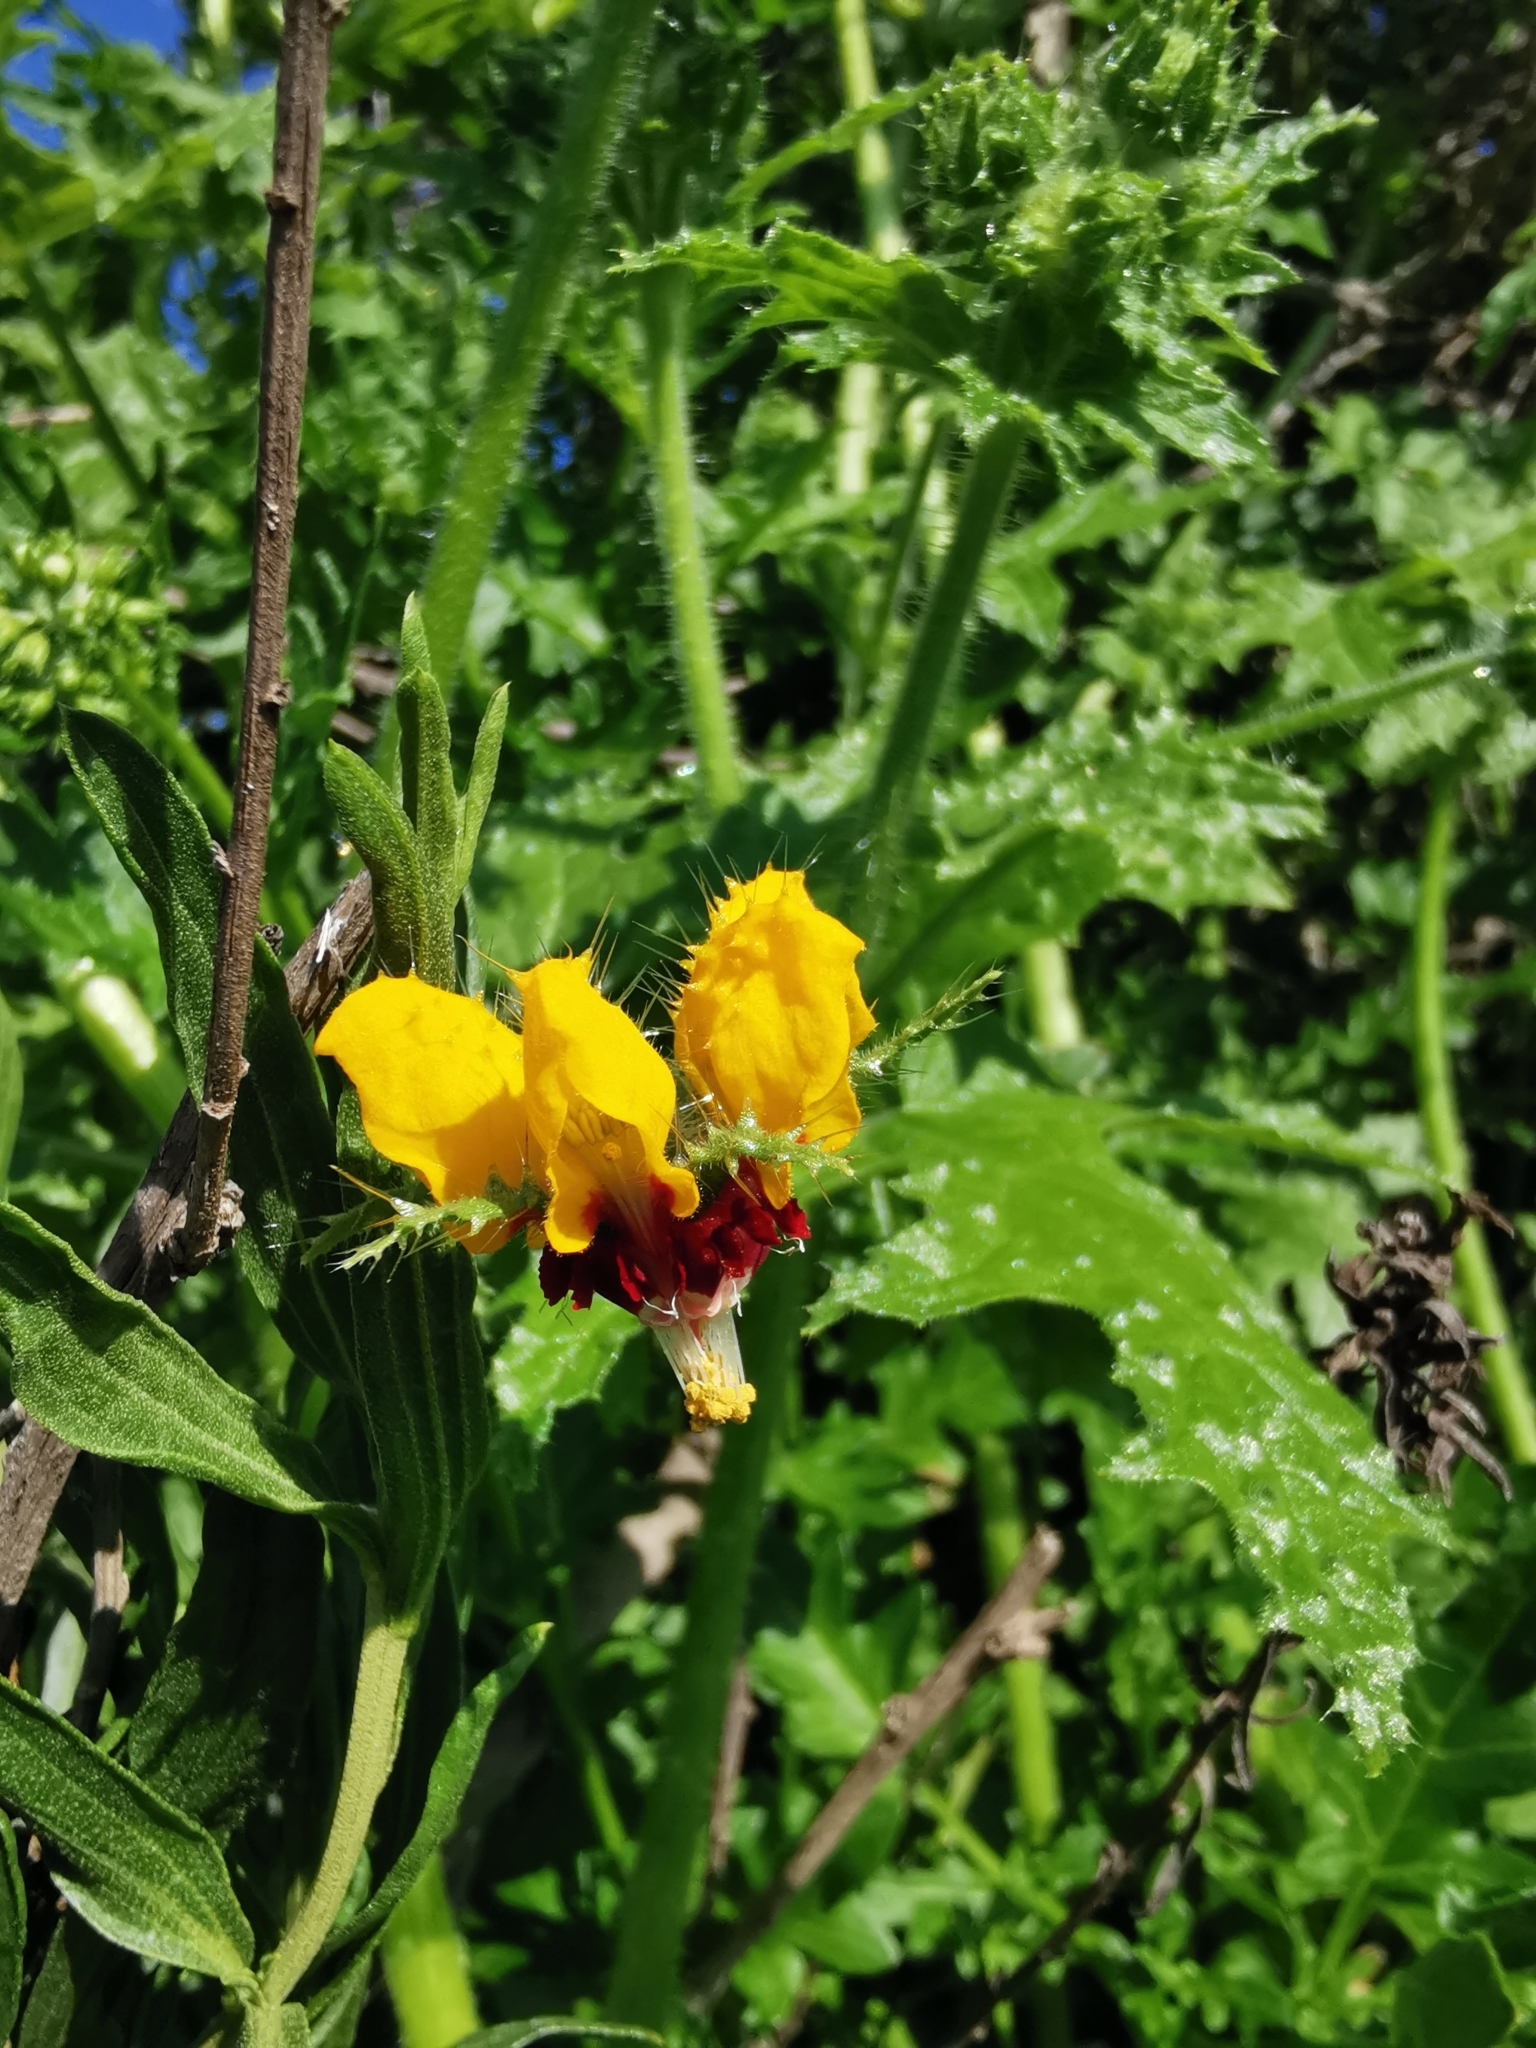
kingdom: Plantae
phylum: Tracheophyta
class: Magnoliopsida
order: Cornales
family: Loasaceae
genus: Loasa
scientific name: Loasa tricolor
